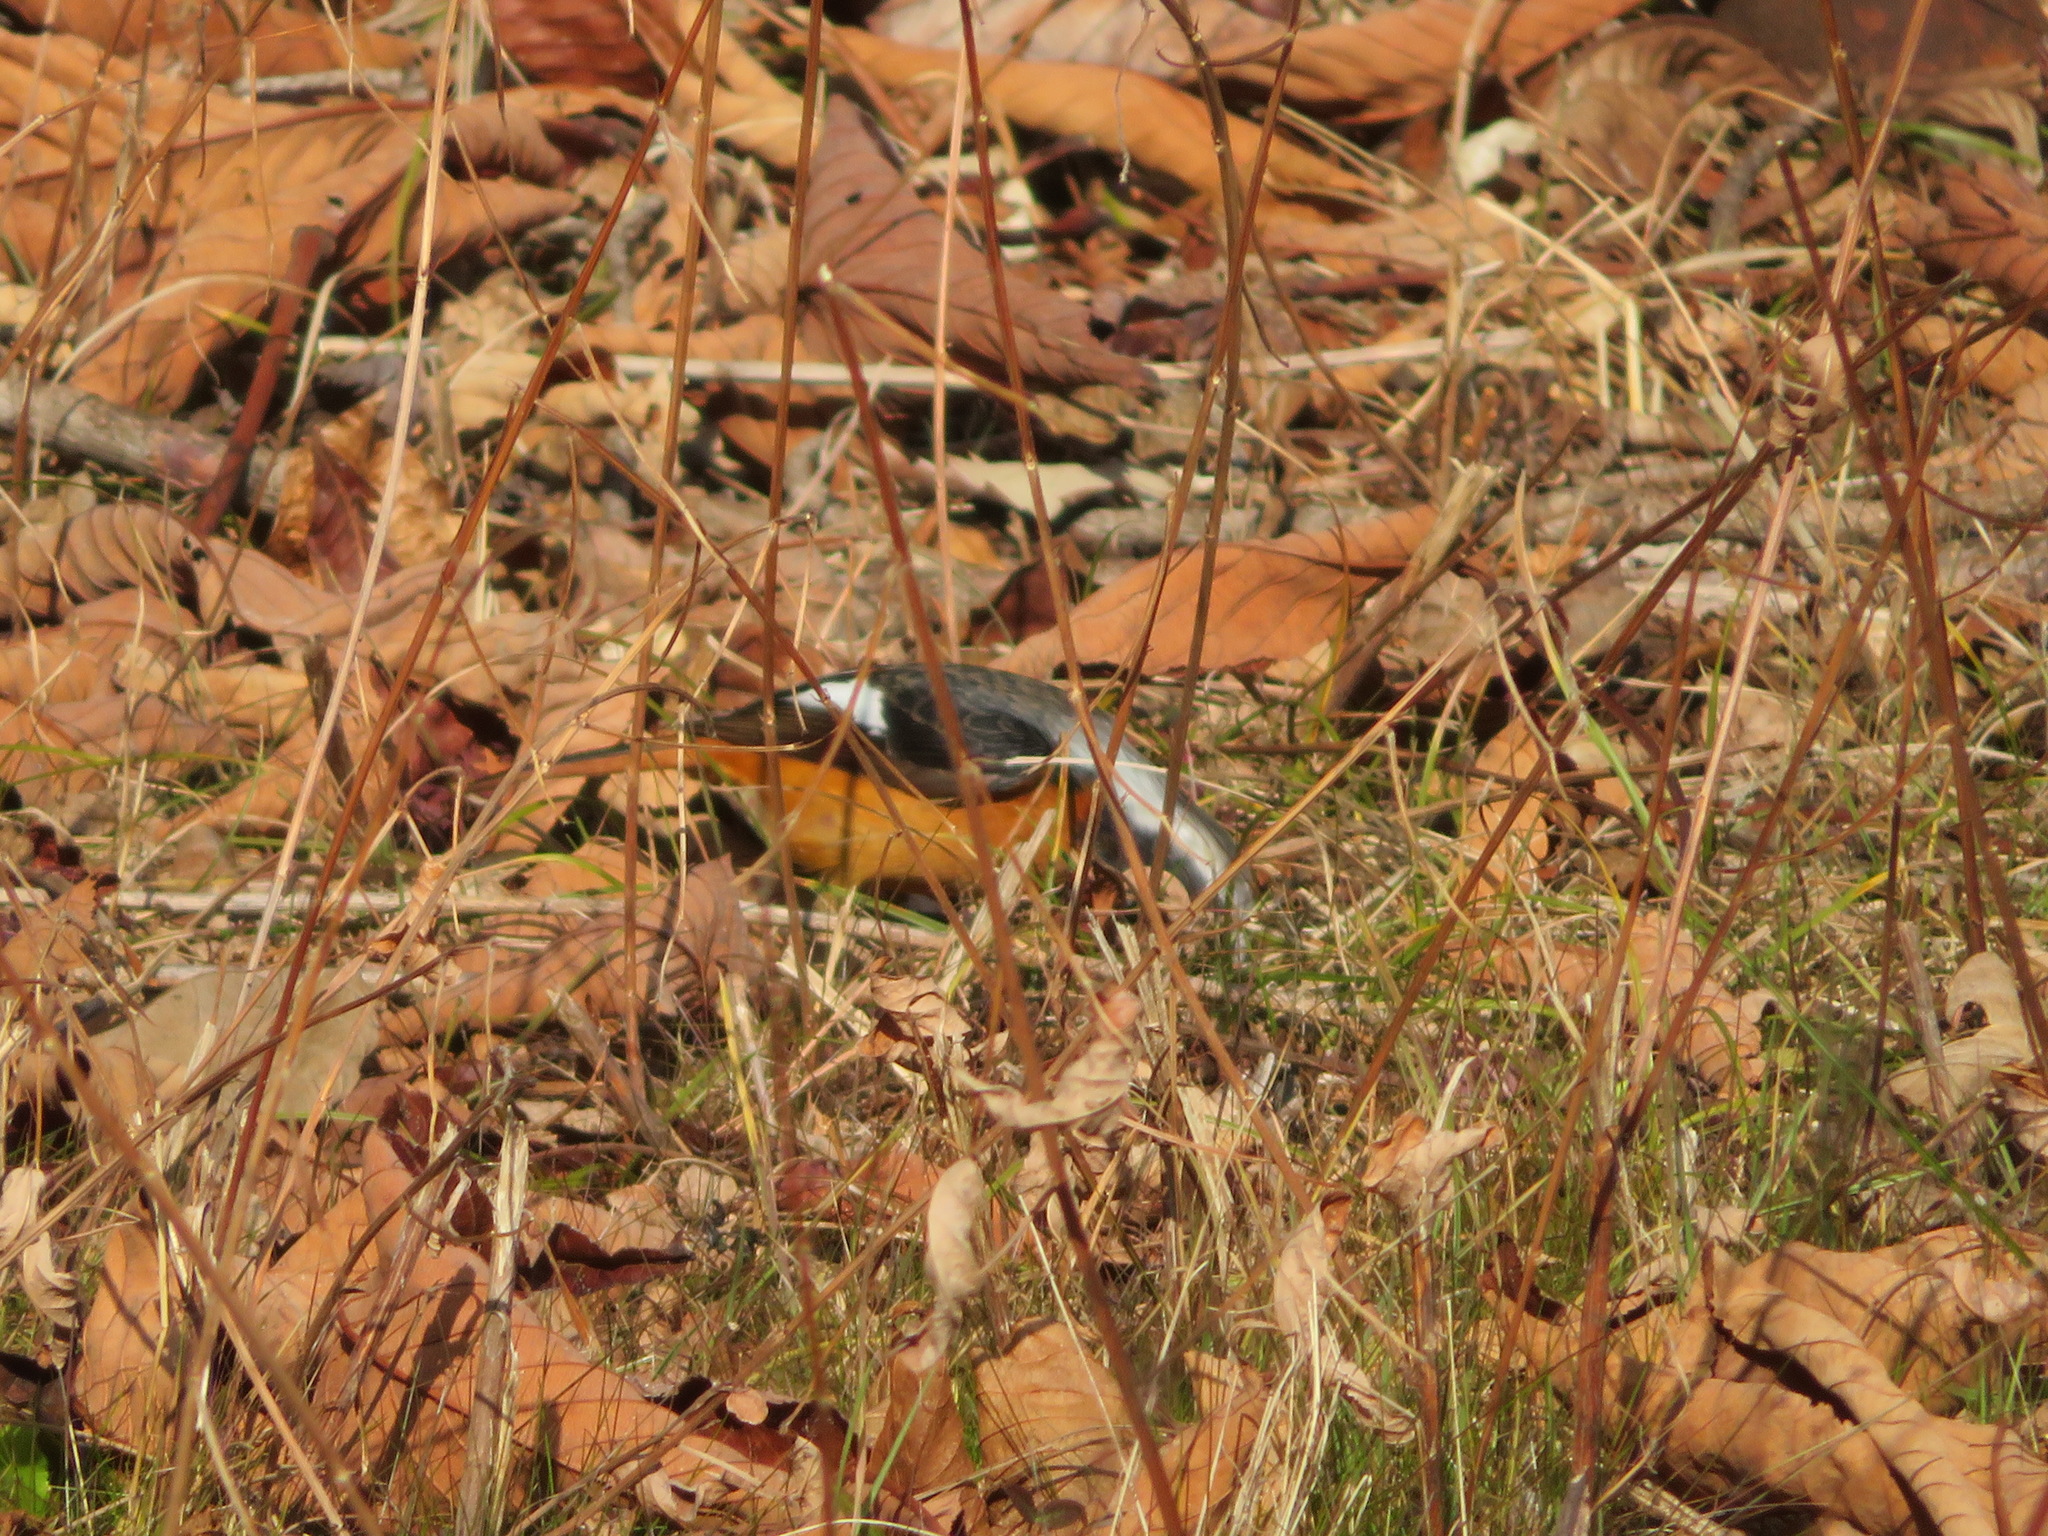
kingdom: Animalia
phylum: Chordata
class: Aves
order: Passeriformes
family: Muscicapidae
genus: Phoenicurus
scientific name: Phoenicurus auroreus
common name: Daurian redstart
